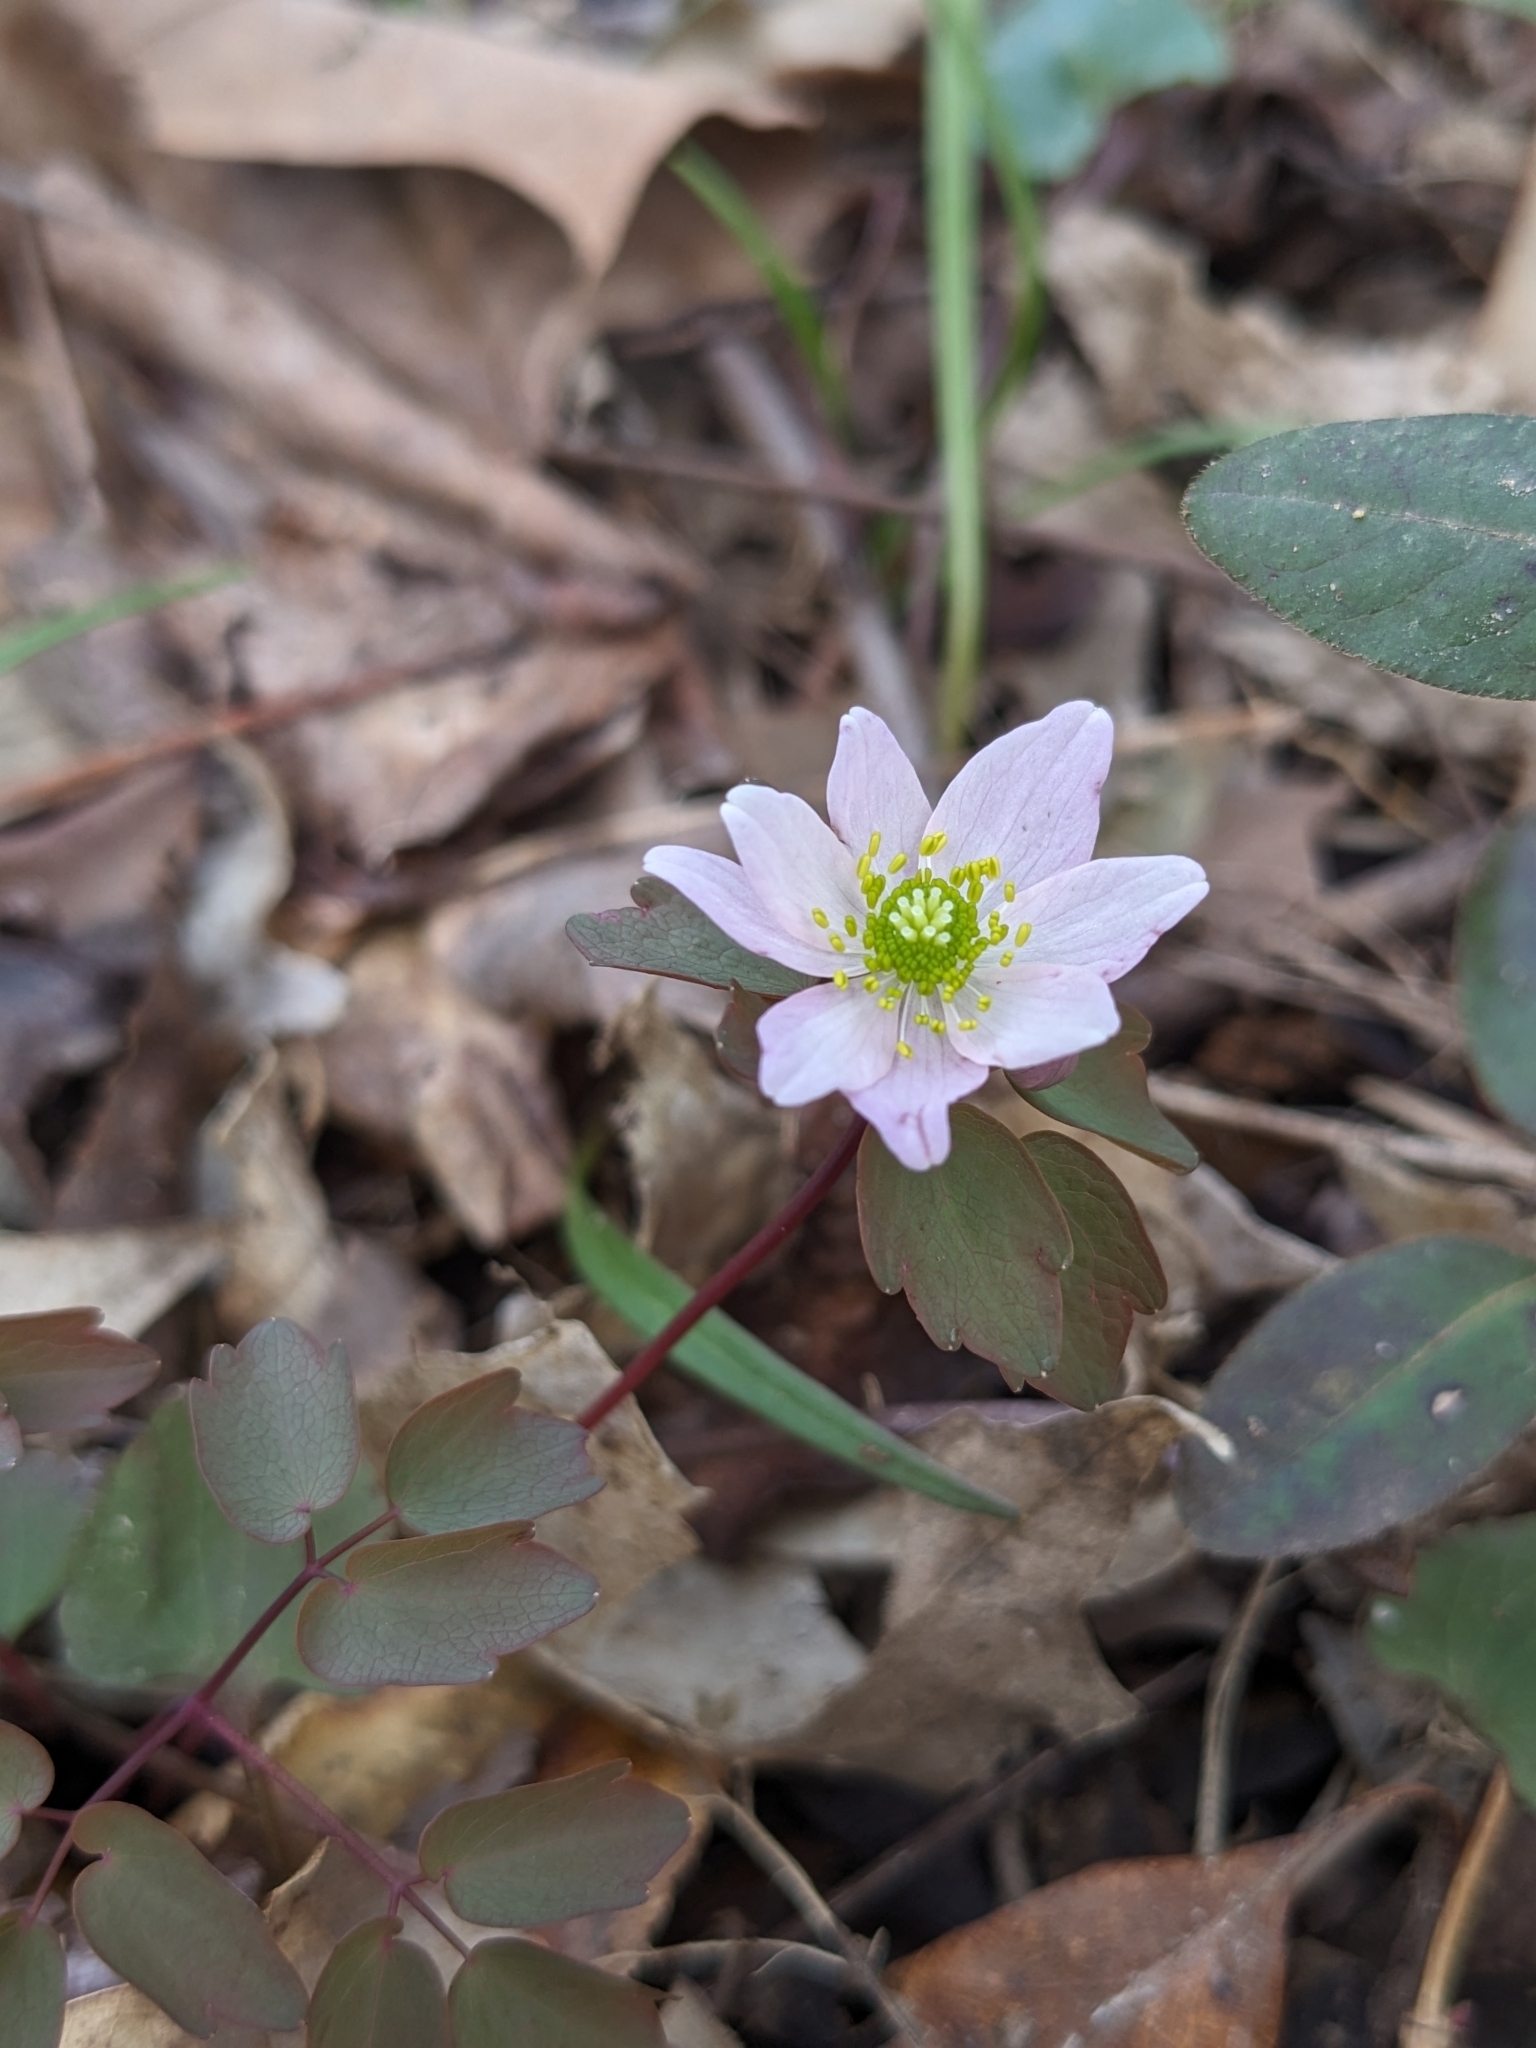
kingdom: Plantae
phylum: Tracheophyta
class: Magnoliopsida
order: Ranunculales
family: Ranunculaceae
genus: Thalictrum
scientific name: Thalictrum thalictroides
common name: Rue-anemone
